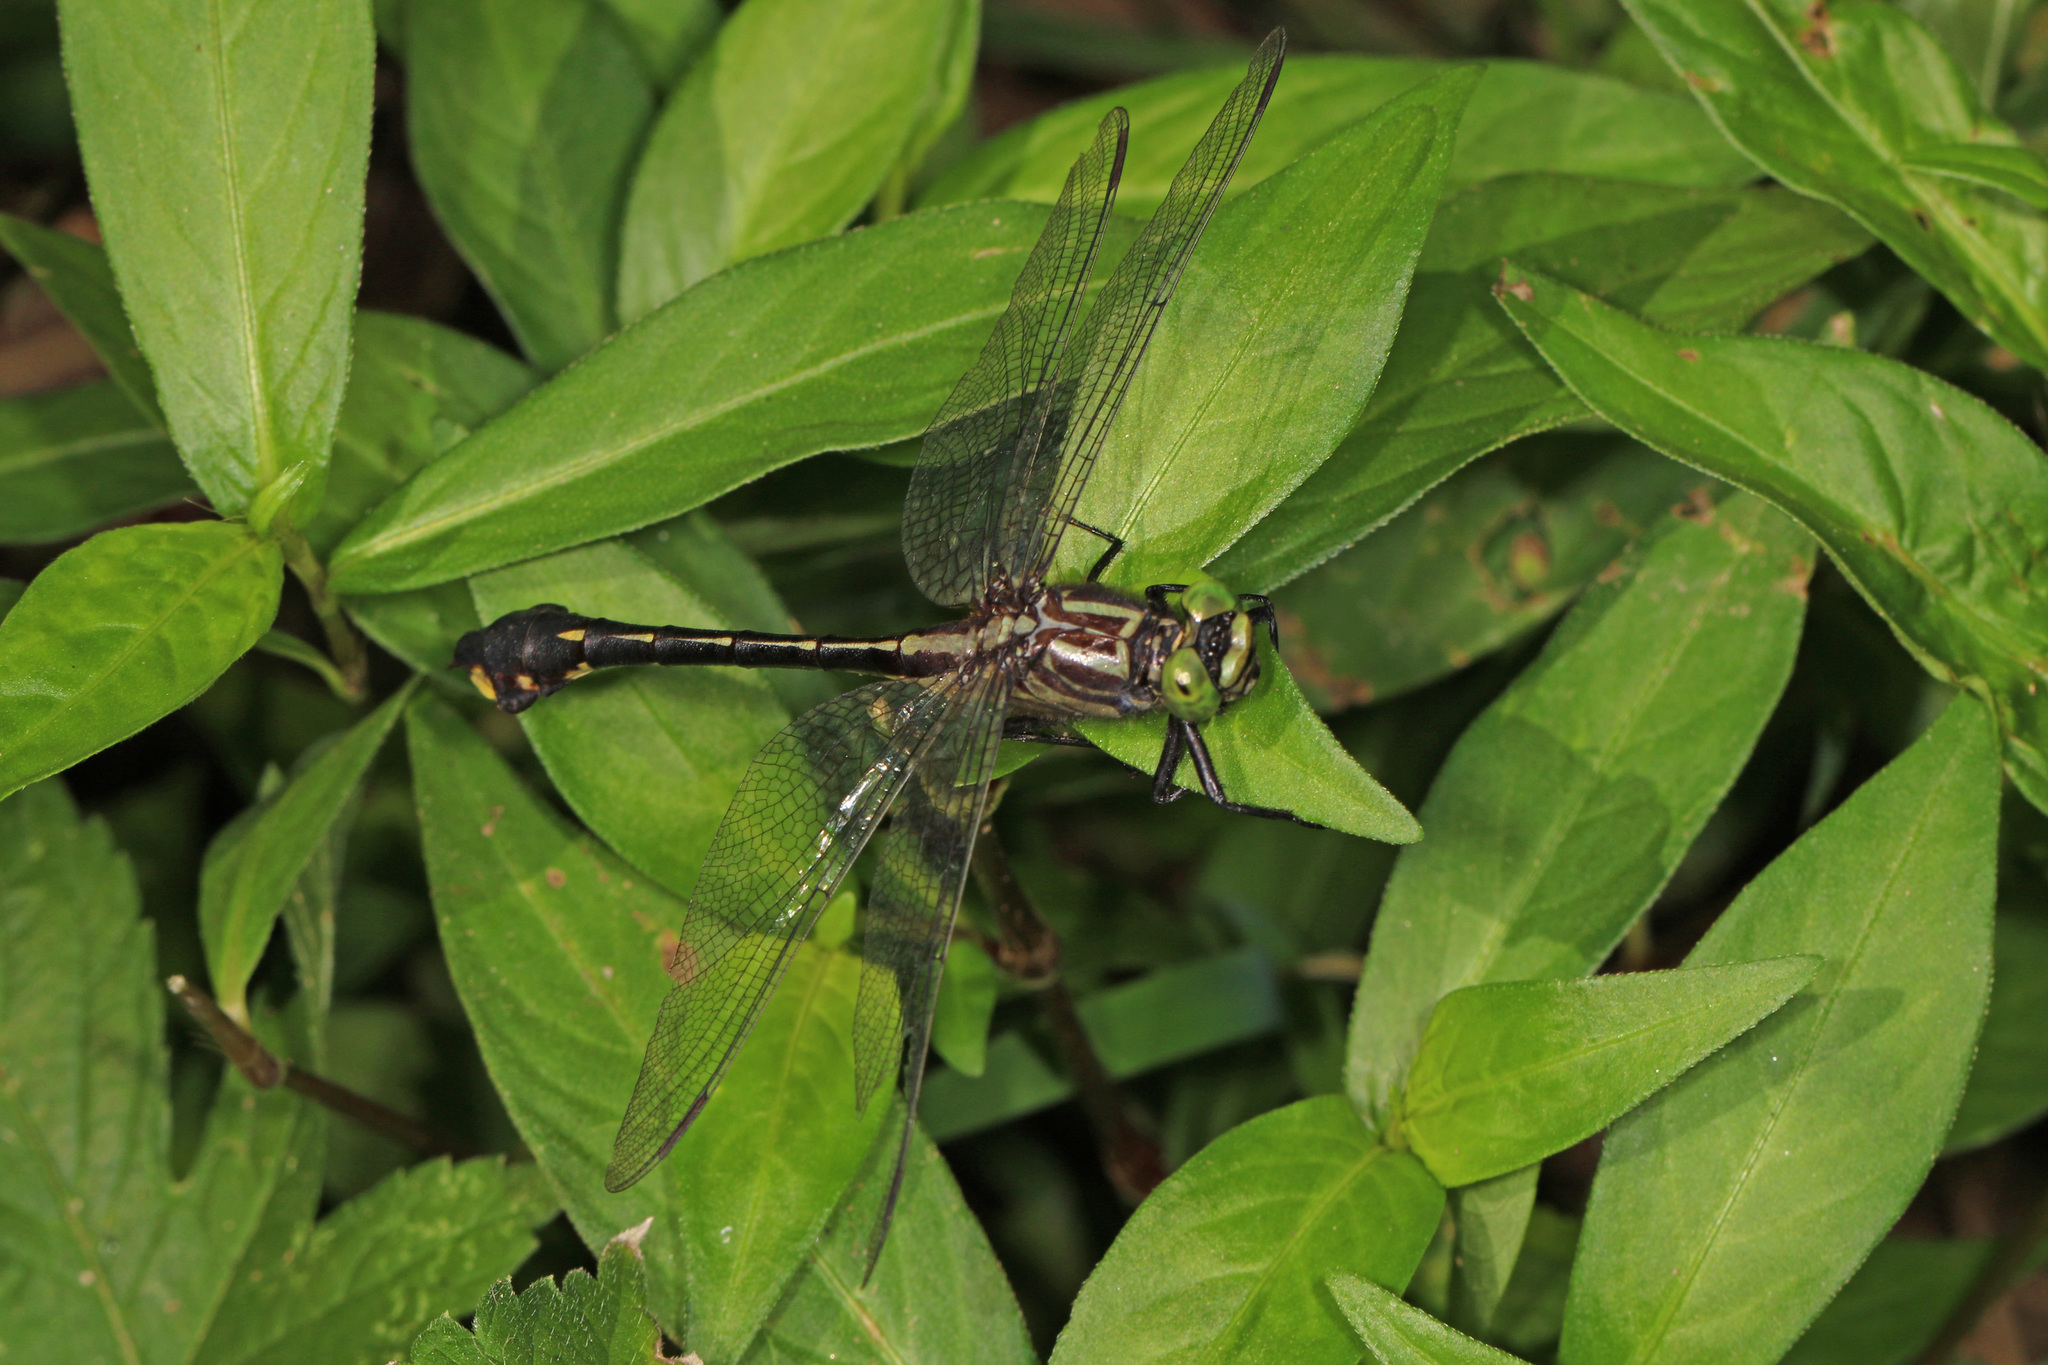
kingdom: Animalia
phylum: Arthropoda
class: Insecta
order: Odonata
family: Gomphidae
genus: Gomphurus
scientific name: Gomphurus vastus
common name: Cobra clubtail
